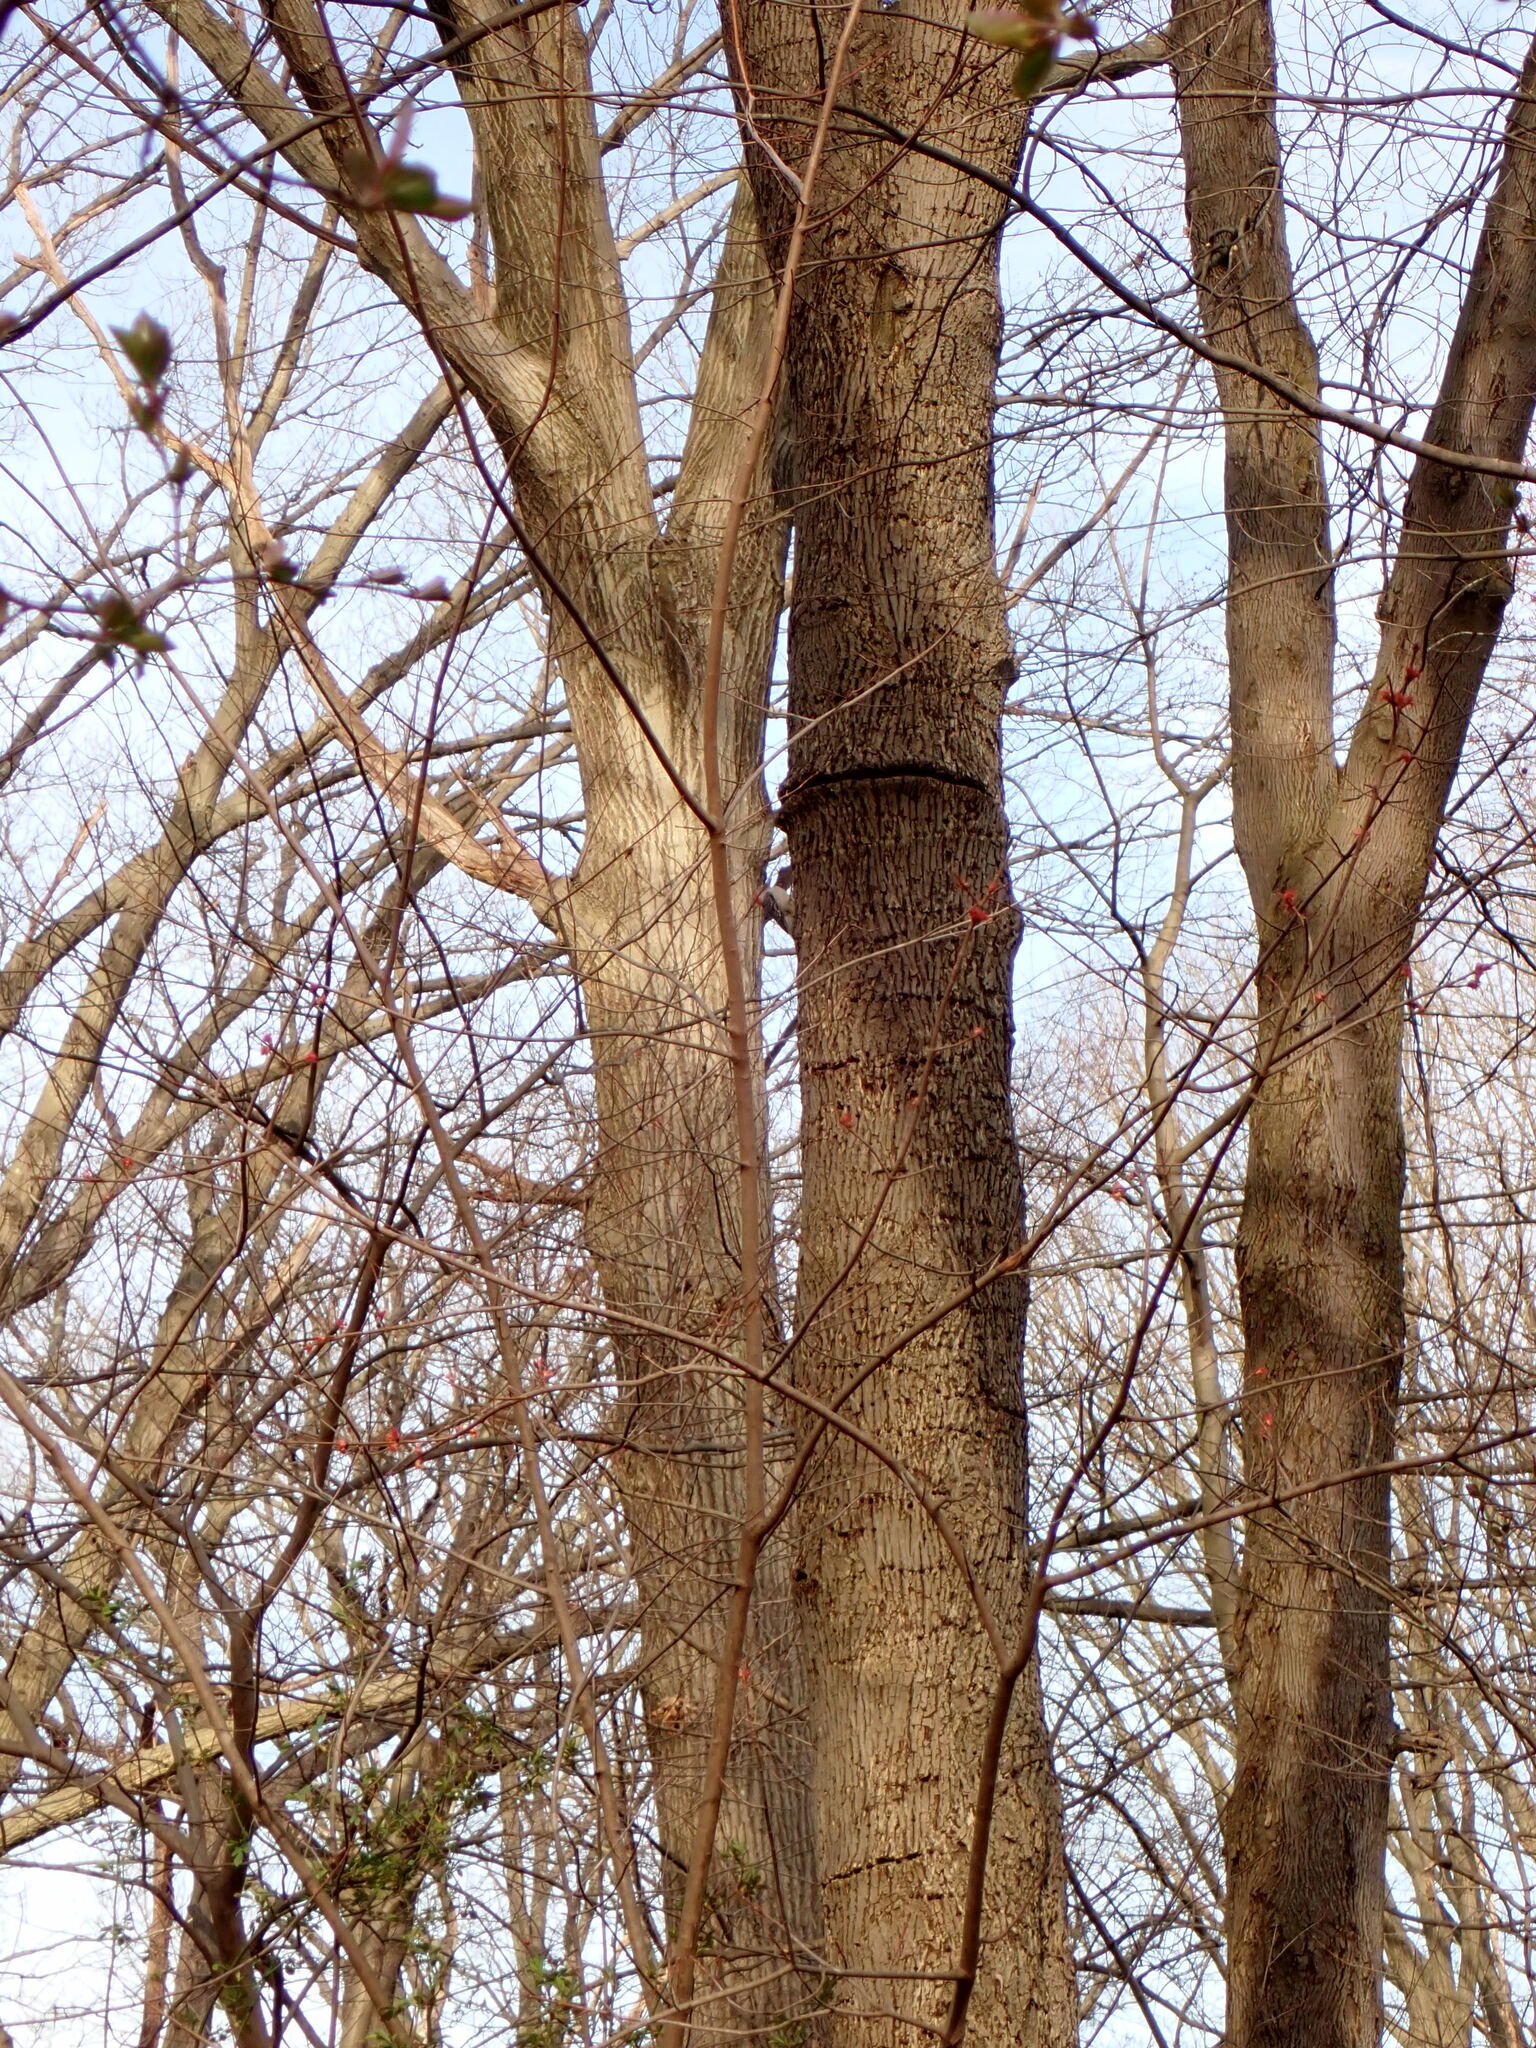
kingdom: Animalia
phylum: Chordata
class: Aves
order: Piciformes
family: Picidae
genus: Melanerpes
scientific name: Melanerpes carolinus
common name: Red-bellied woodpecker
